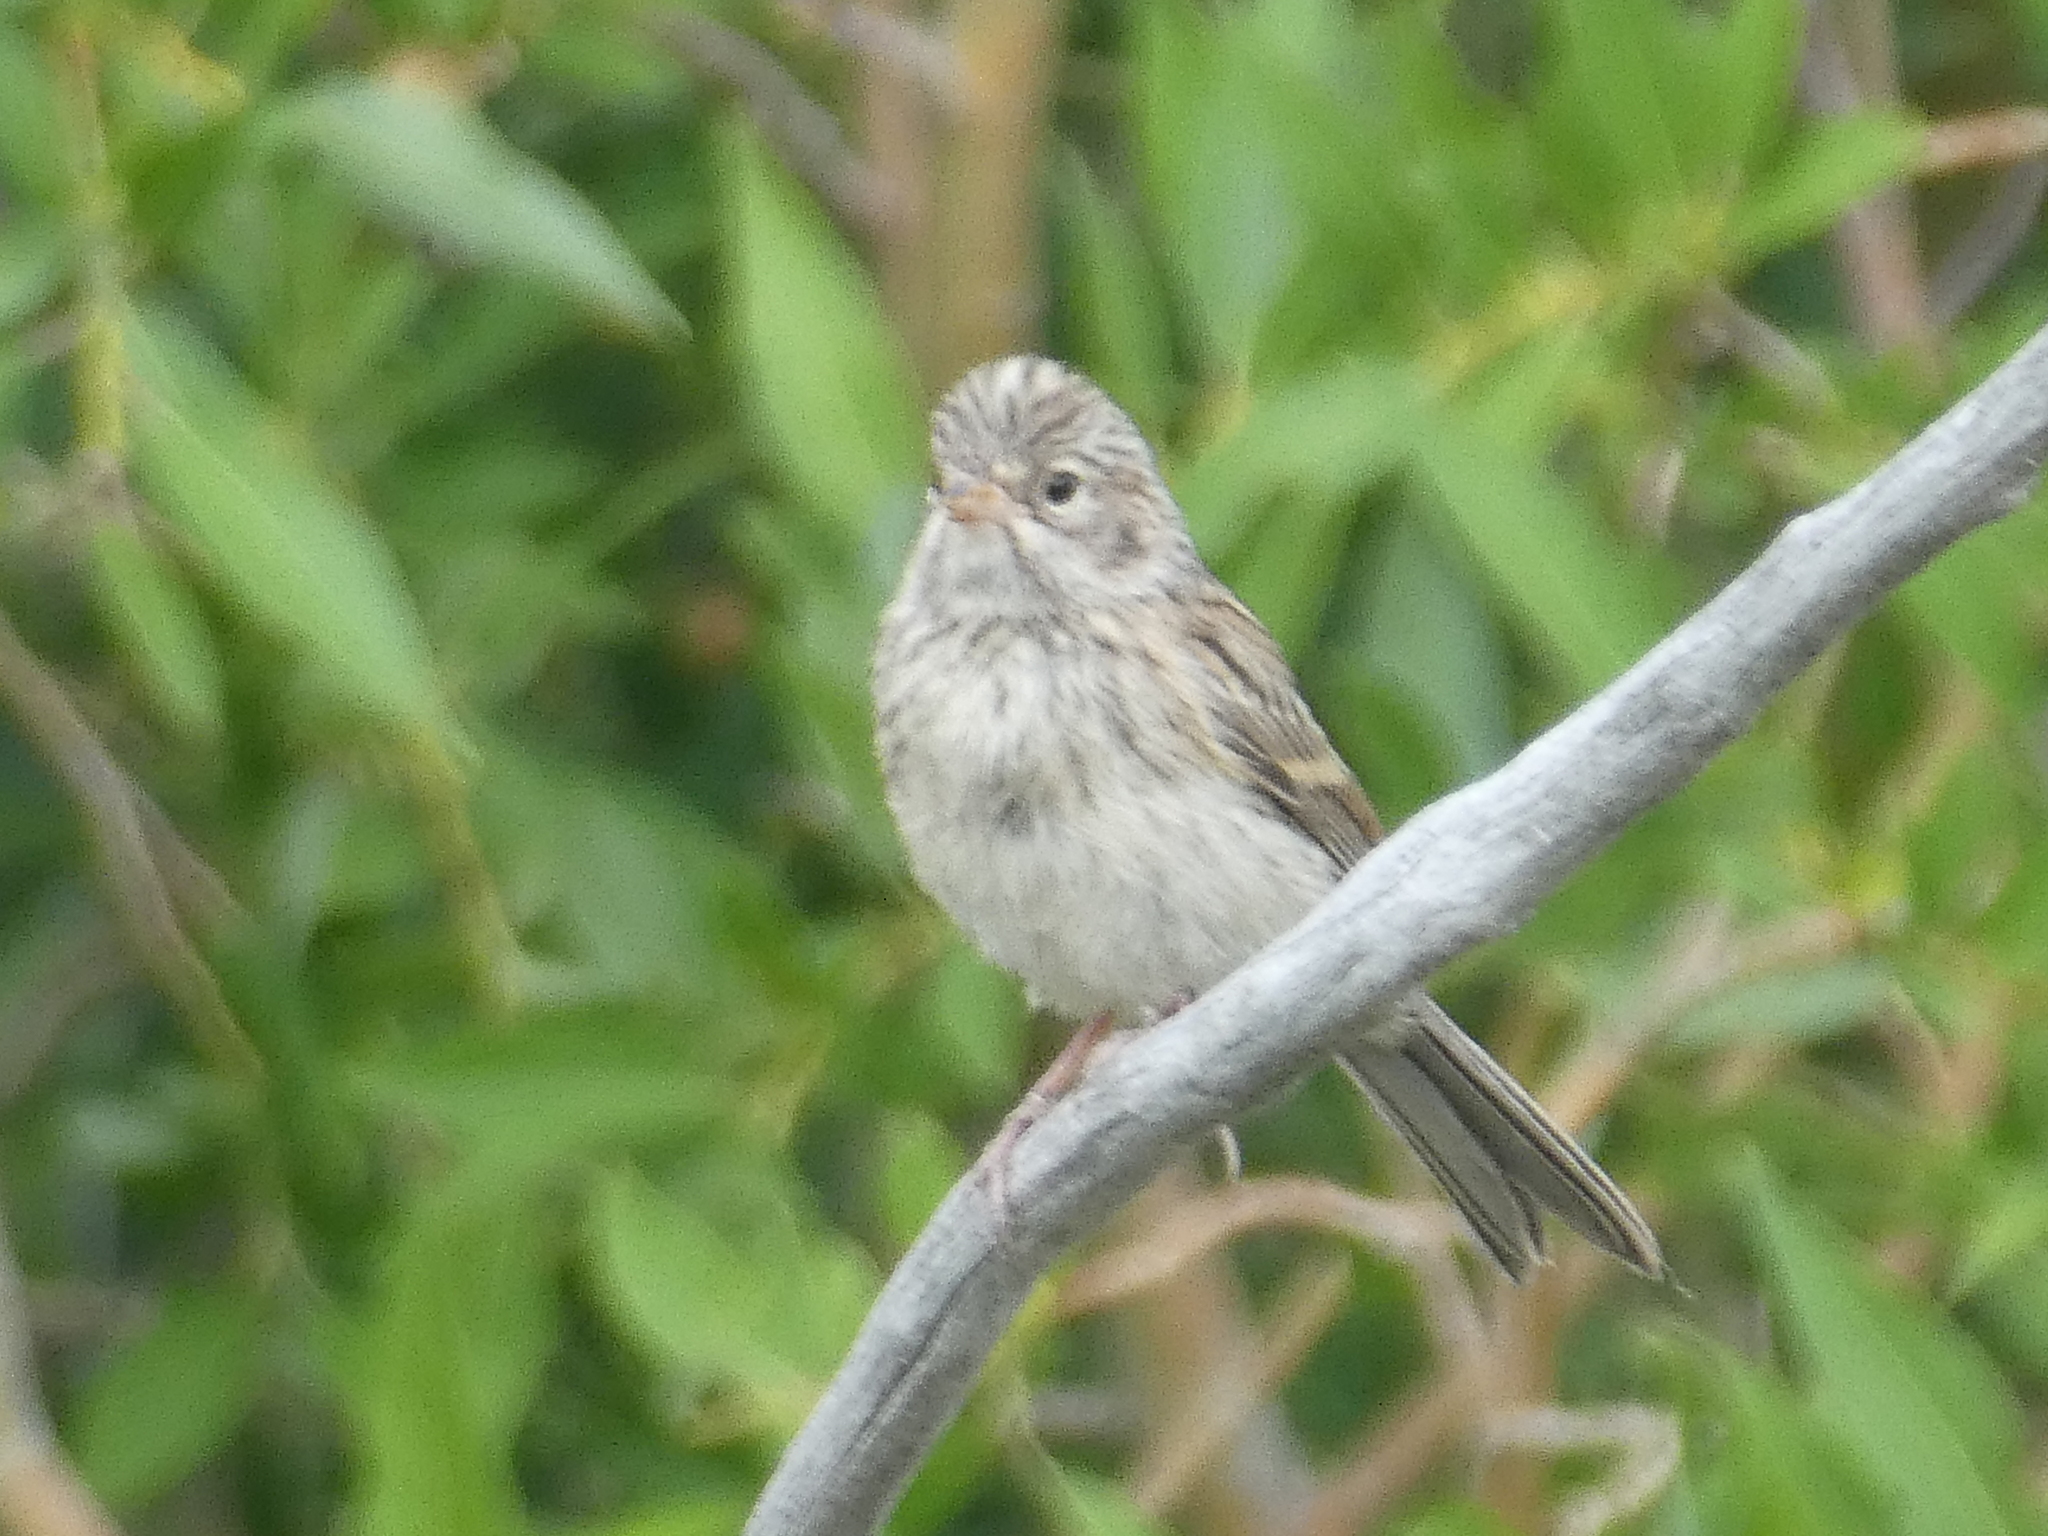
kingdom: Animalia
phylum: Chordata
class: Aves
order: Passeriformes
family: Passerellidae
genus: Spizella
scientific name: Spizella breweri
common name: Brewer's sparrow
